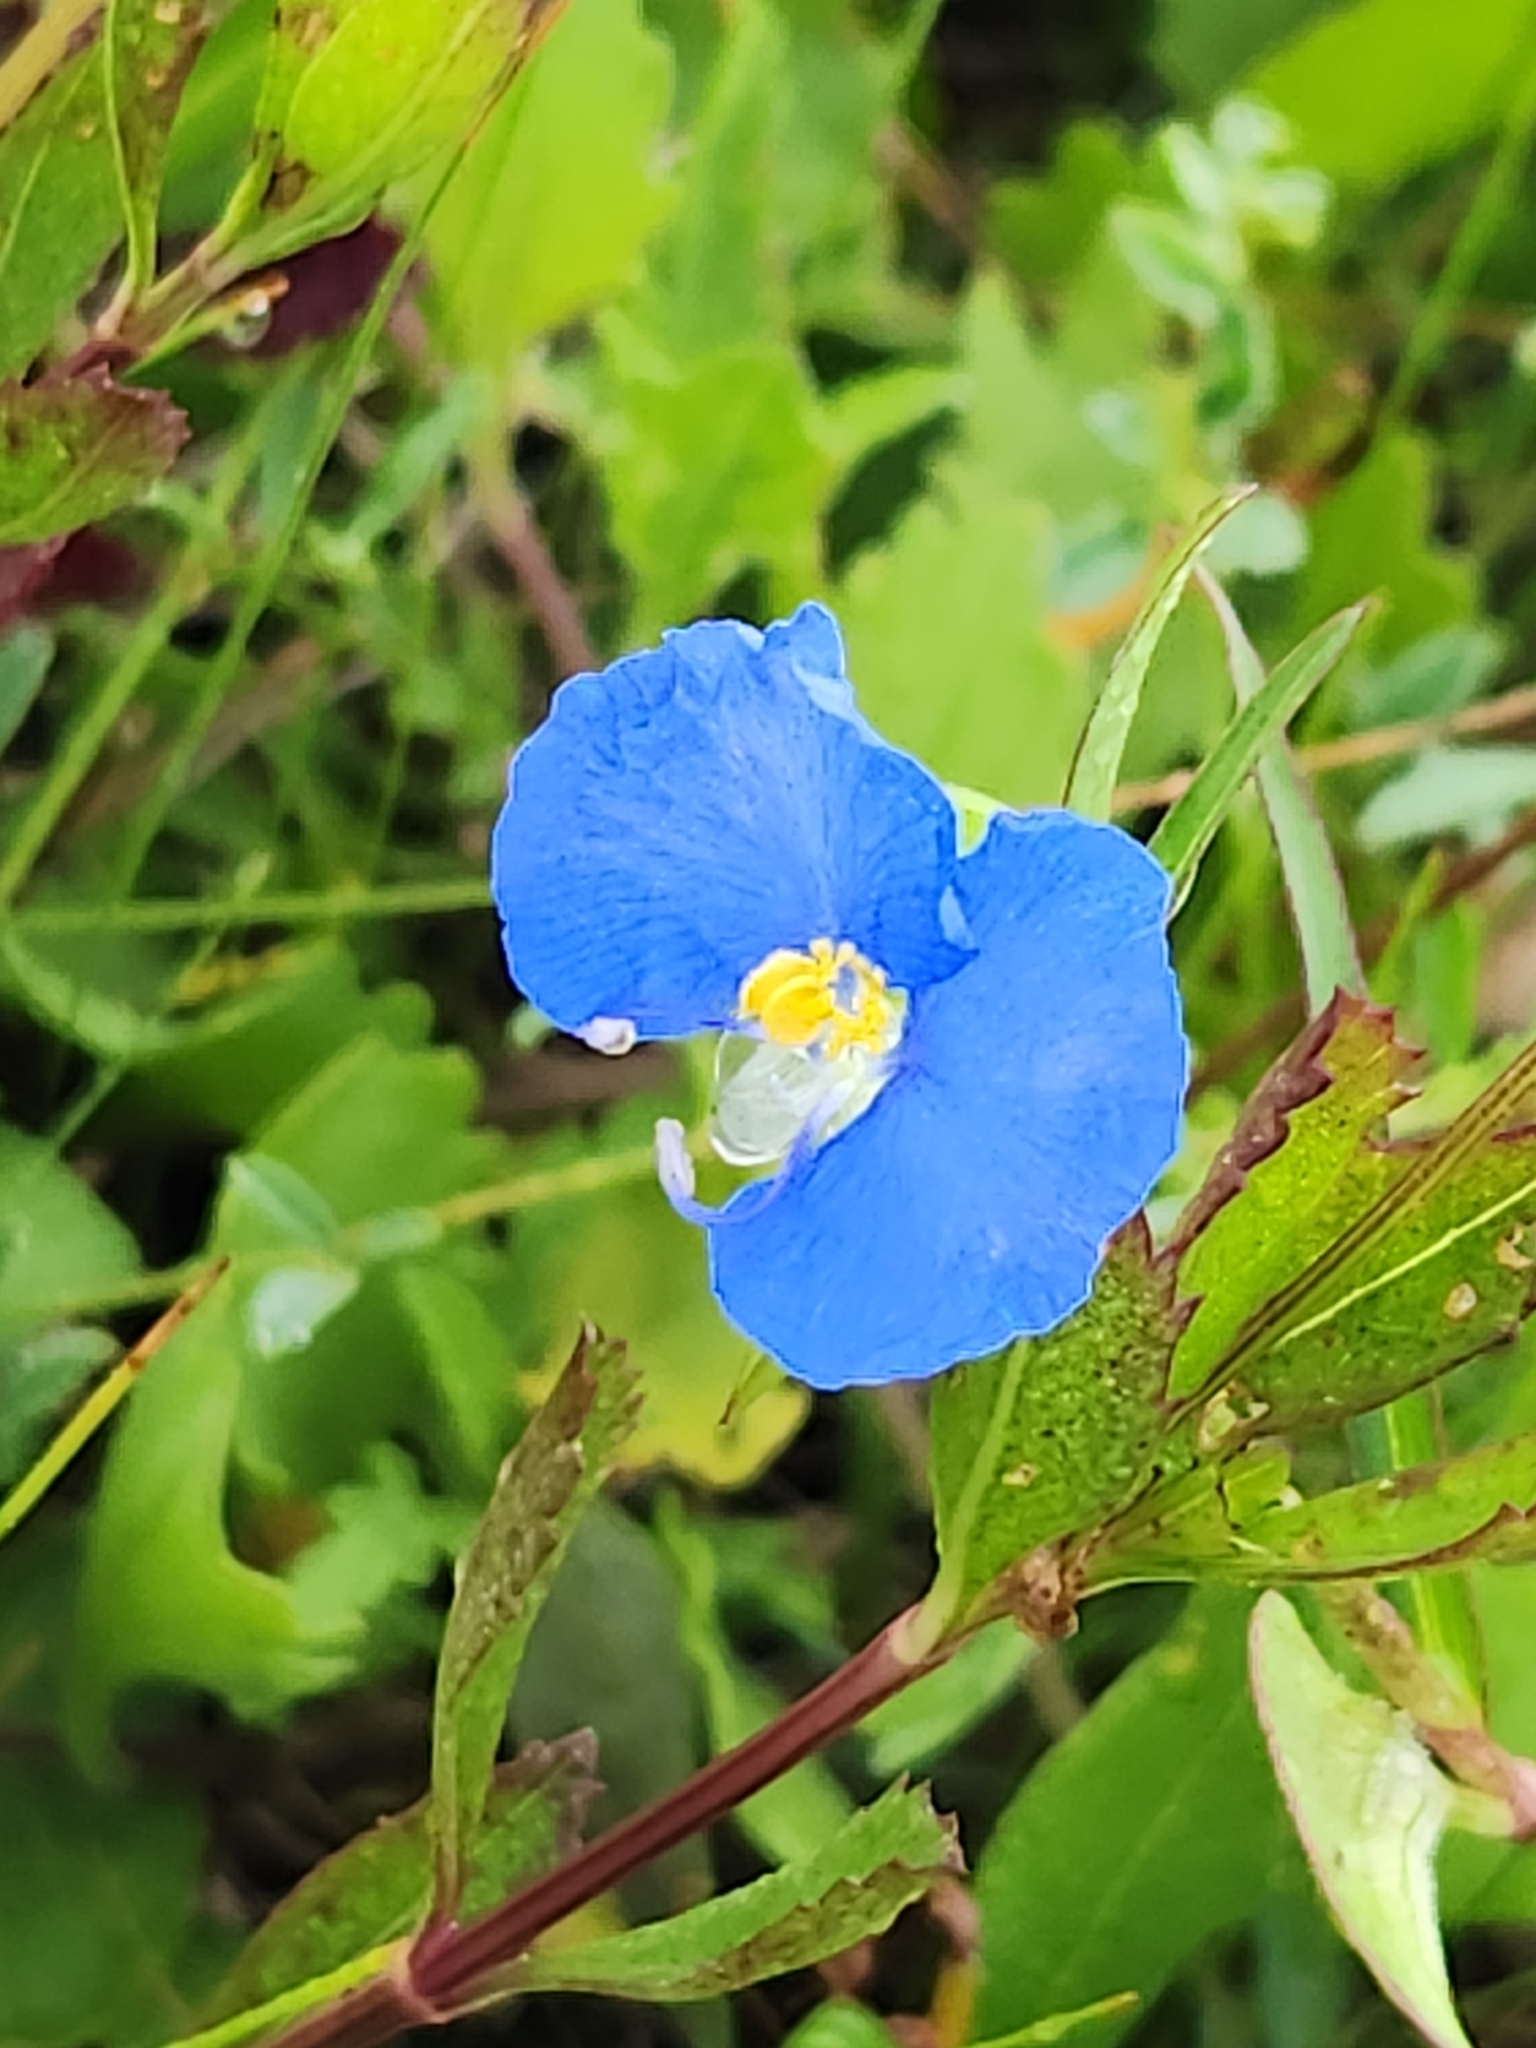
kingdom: Plantae
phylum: Tracheophyta
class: Liliopsida
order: Commelinales
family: Commelinaceae
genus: Commelina
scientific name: Commelina erecta
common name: Blousel blommetjie
